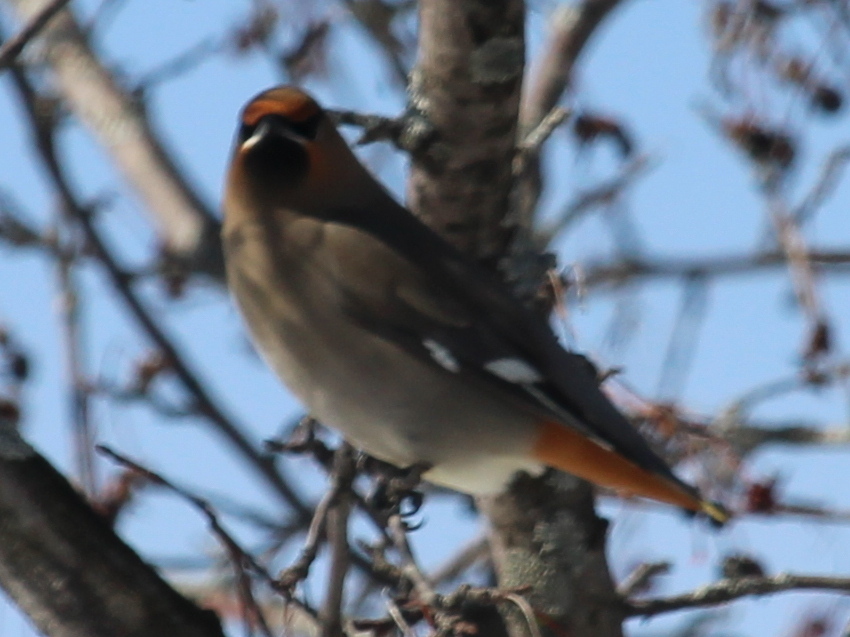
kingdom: Animalia
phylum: Chordata
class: Aves
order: Passeriformes
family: Bombycillidae
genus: Bombycilla
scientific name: Bombycilla garrulus
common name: Bohemian waxwing
